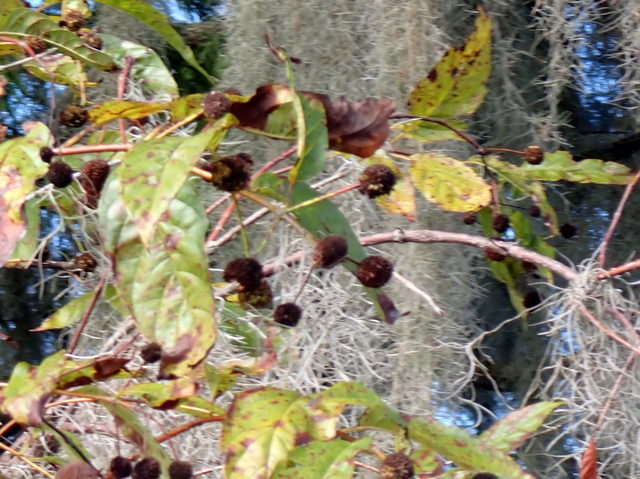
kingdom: Plantae
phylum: Tracheophyta
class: Magnoliopsida
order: Gentianales
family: Rubiaceae
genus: Cephalanthus
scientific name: Cephalanthus occidentalis
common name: Button-willow
